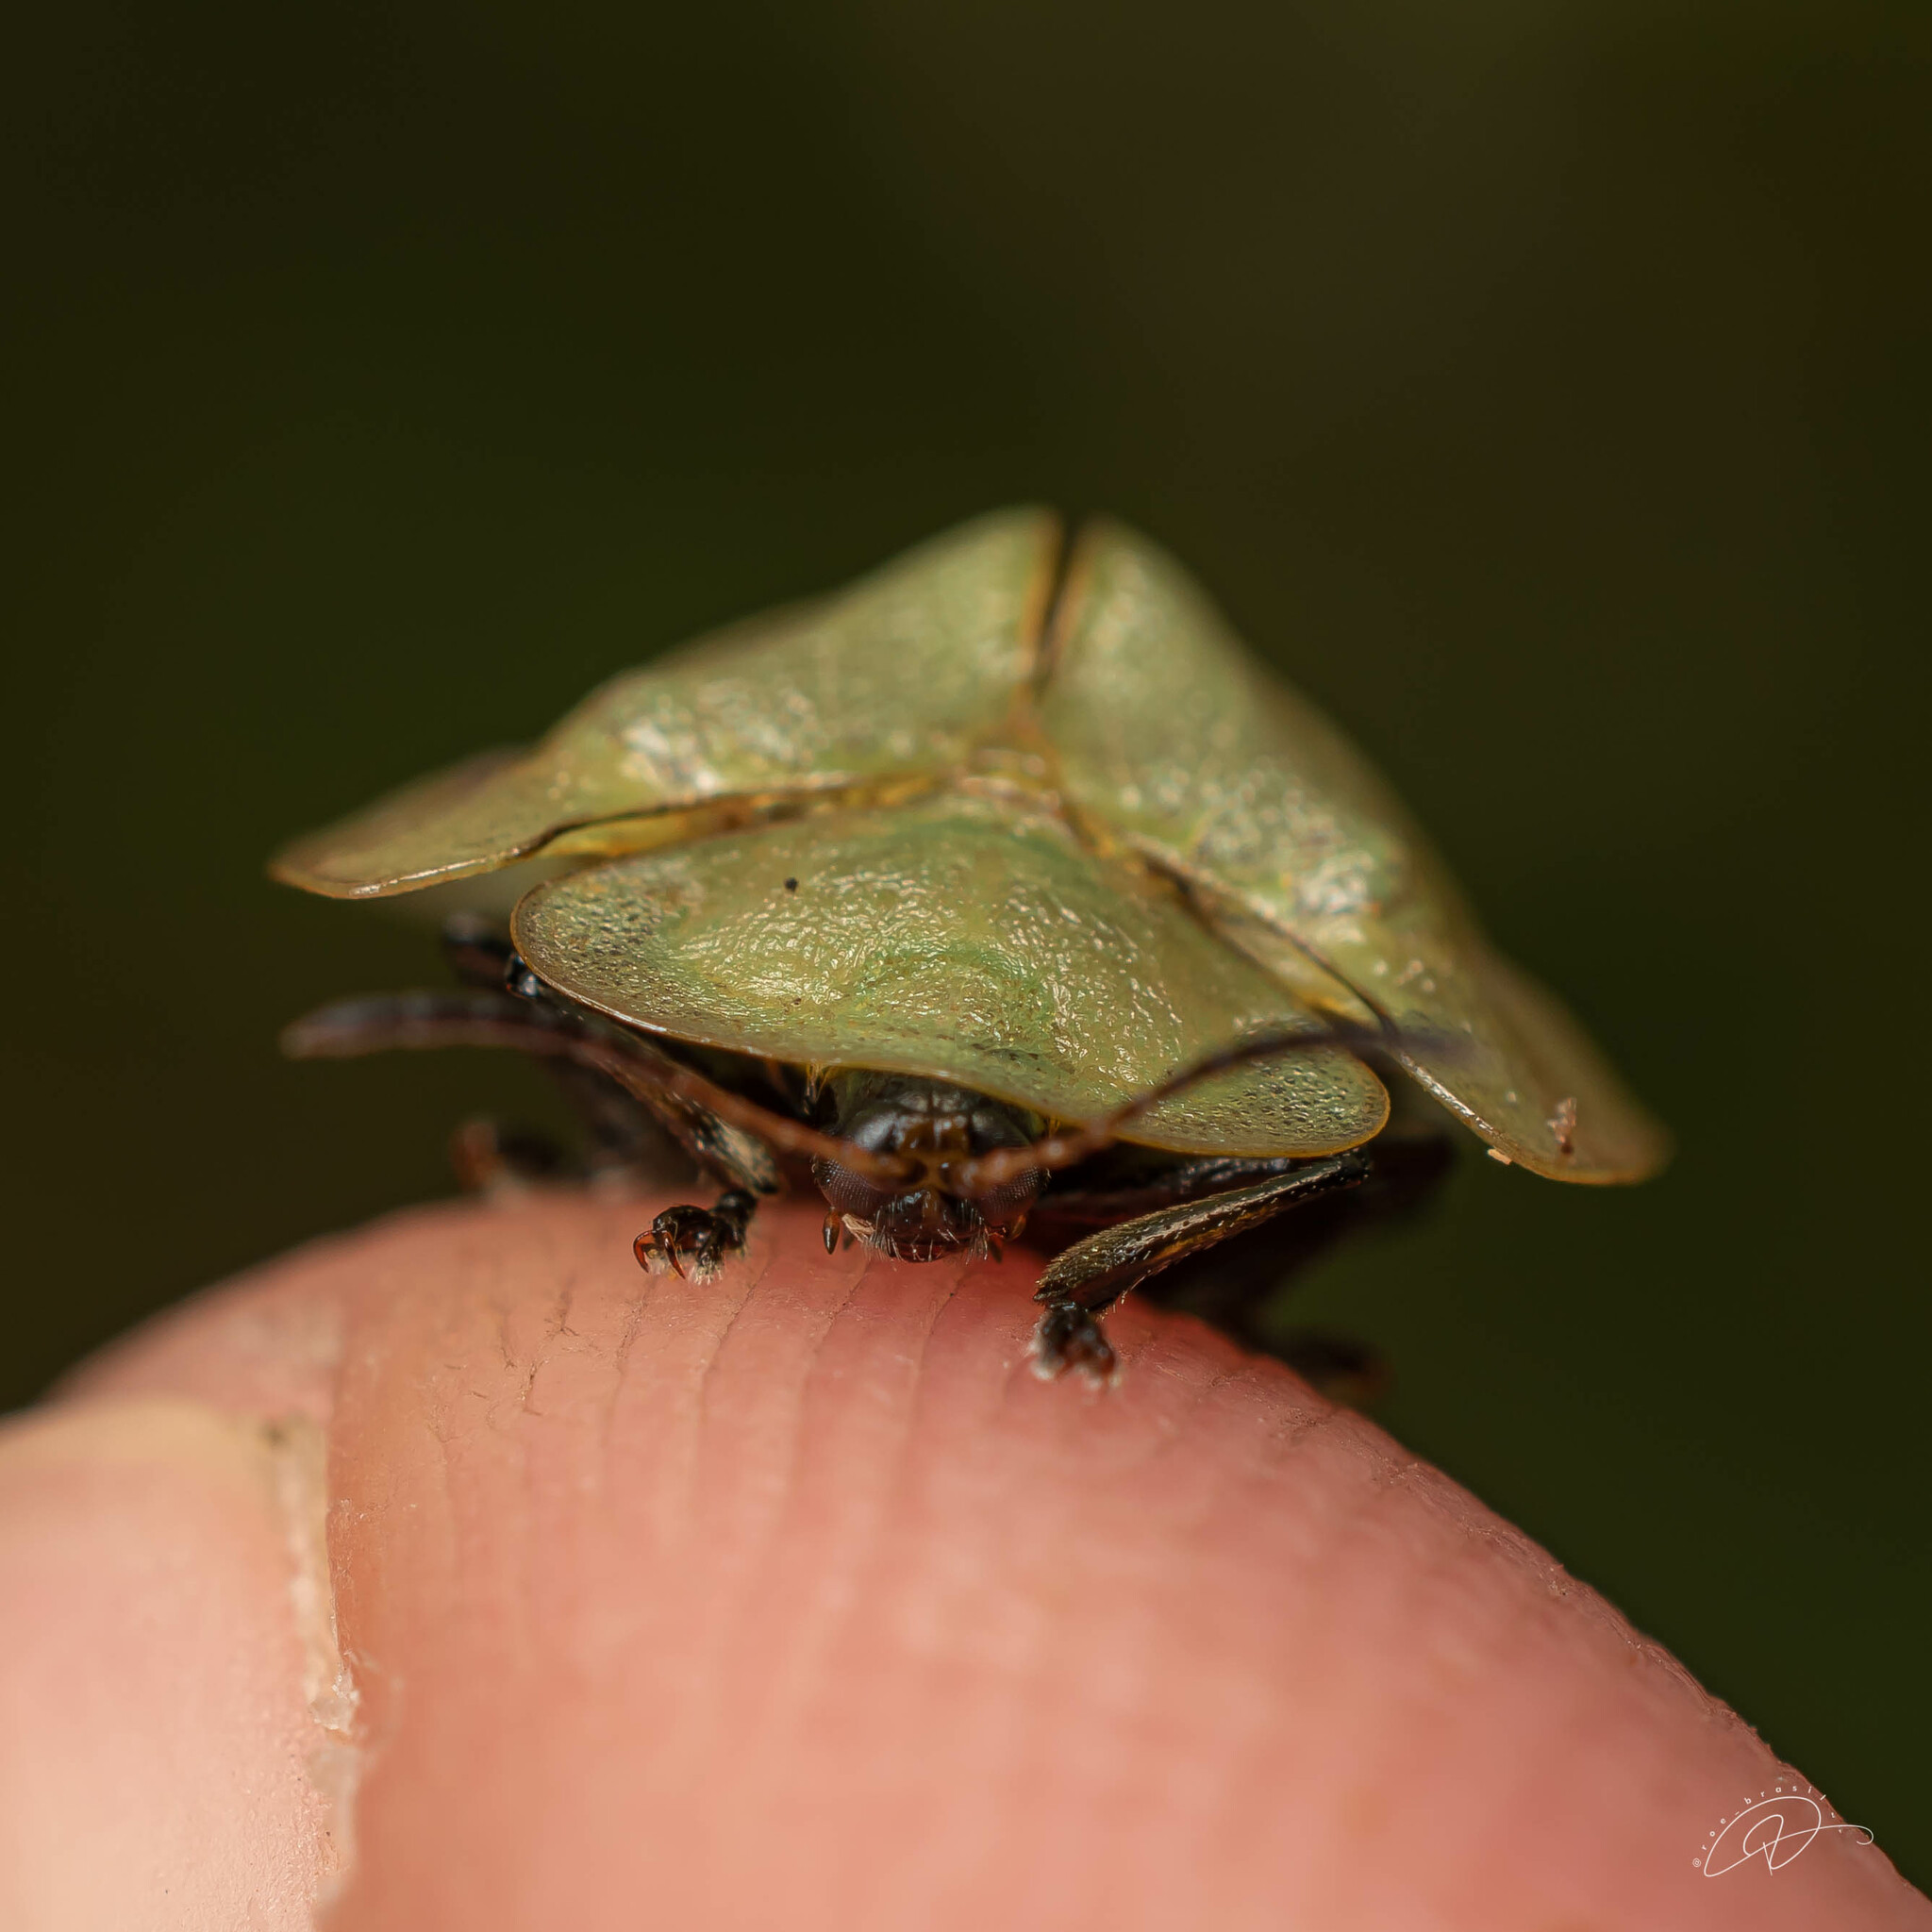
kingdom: Animalia
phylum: Arthropoda
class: Insecta
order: Coleoptera
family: Chrysomelidae
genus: Metriona
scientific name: Metriona elatior
